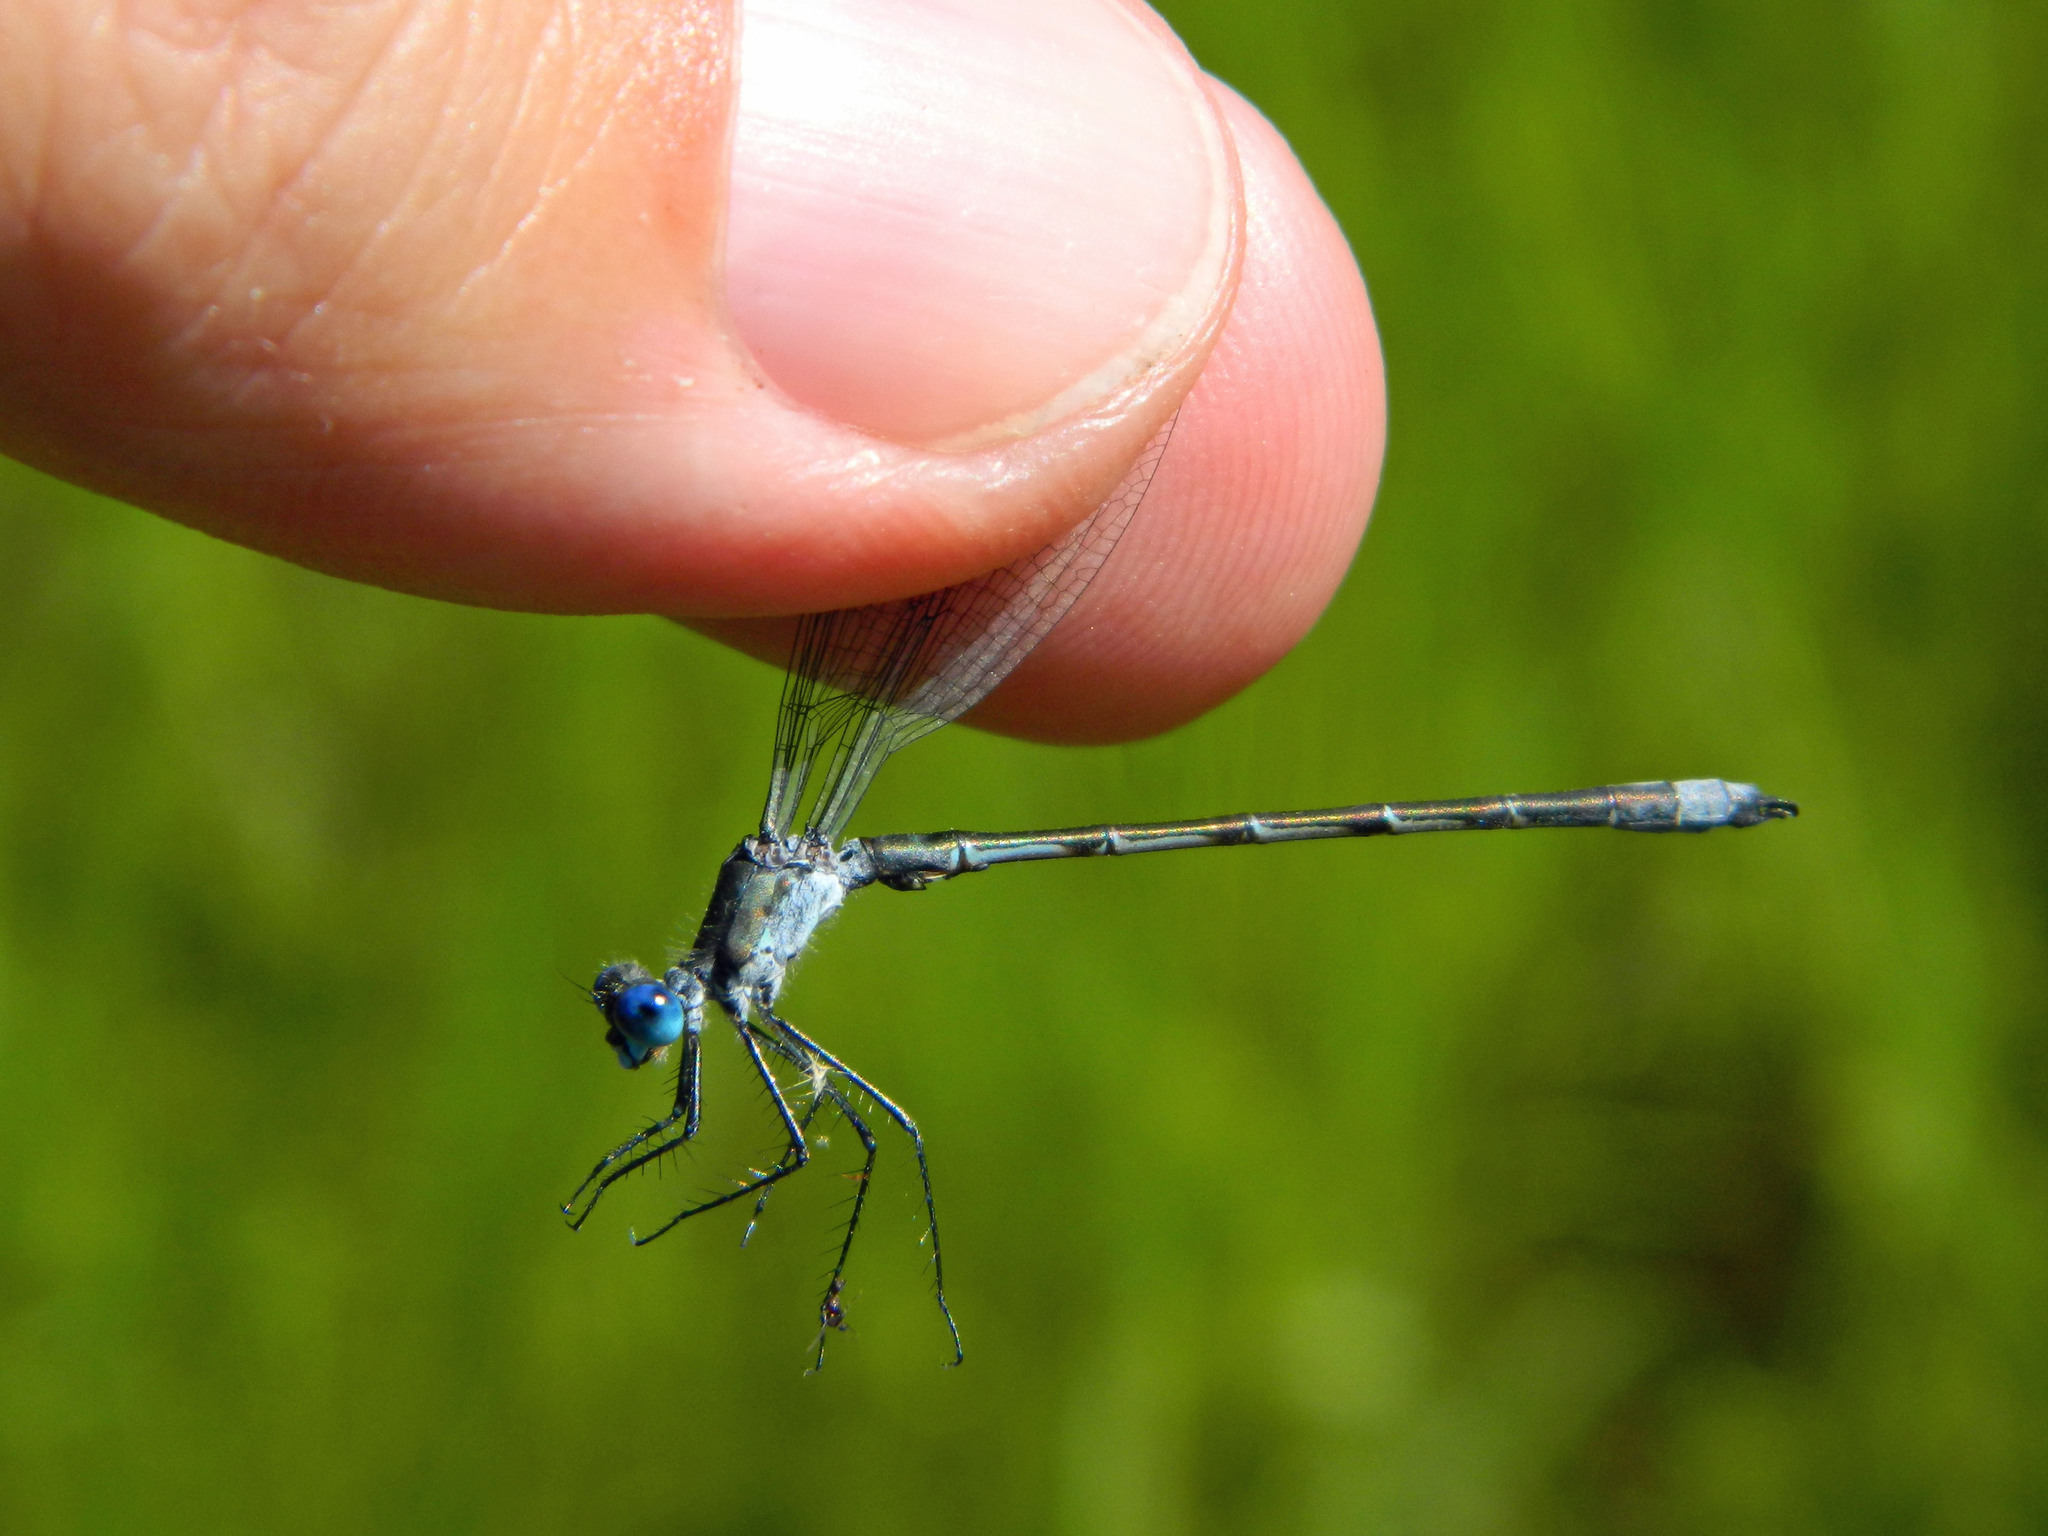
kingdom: Animalia
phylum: Arthropoda
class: Insecta
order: Odonata
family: Lestidae
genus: Lestes
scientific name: Lestes dryas
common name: Scarce emerald damselfly
